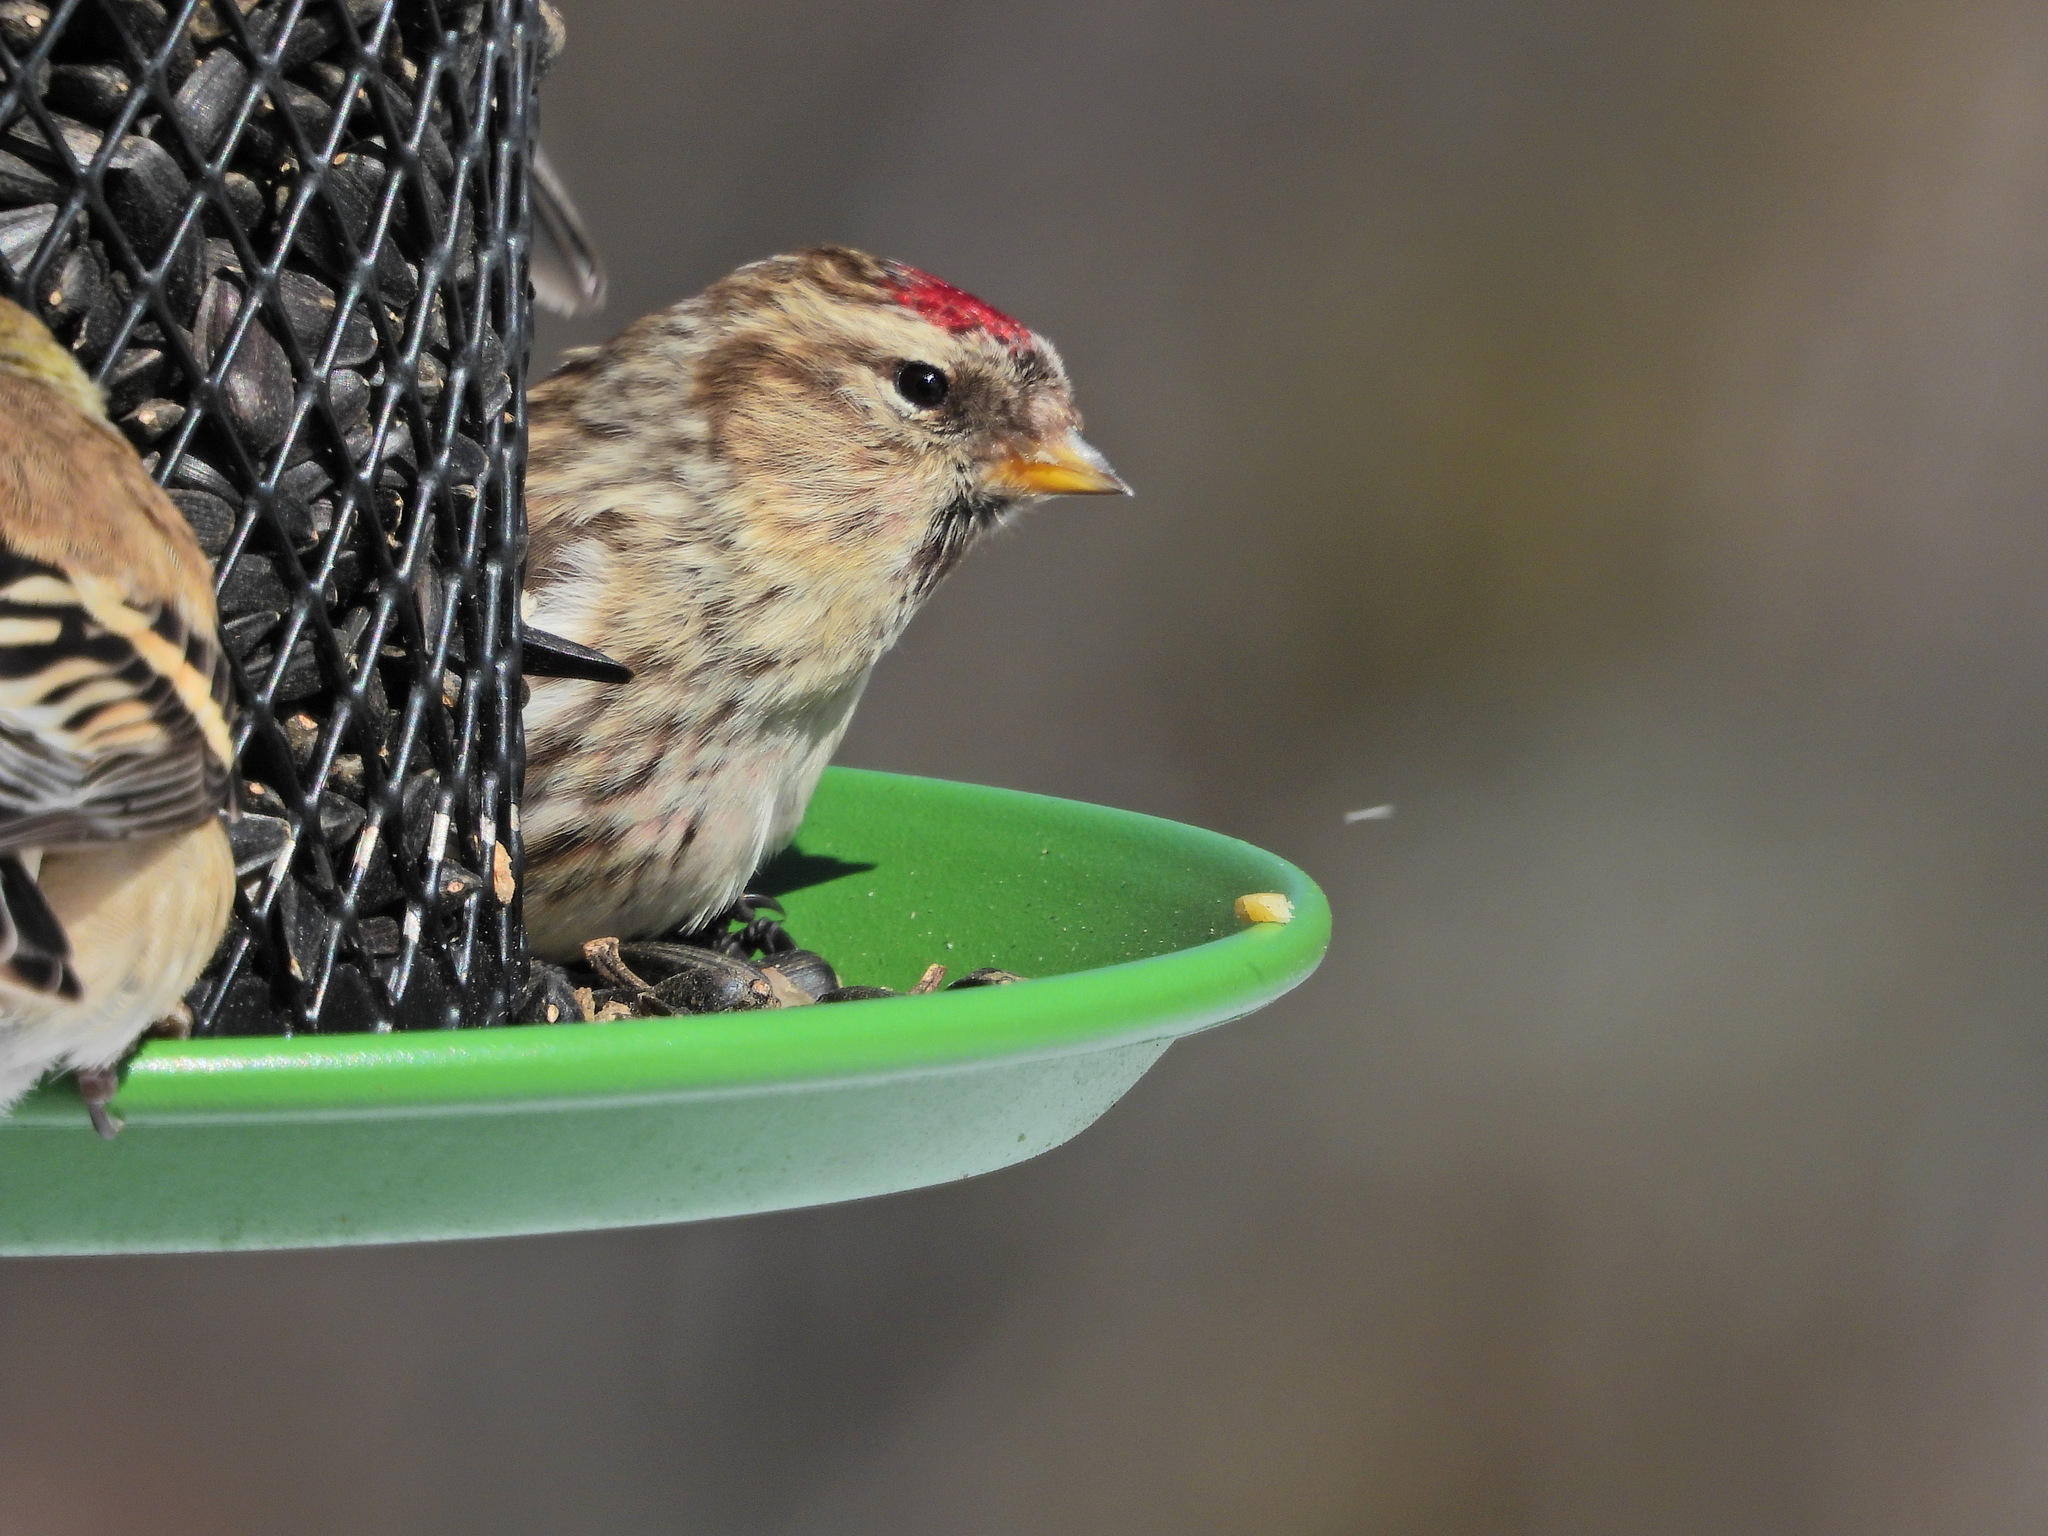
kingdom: Animalia
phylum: Chordata
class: Aves
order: Passeriformes
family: Fringillidae
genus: Acanthis
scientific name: Acanthis flammea
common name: Common redpoll
